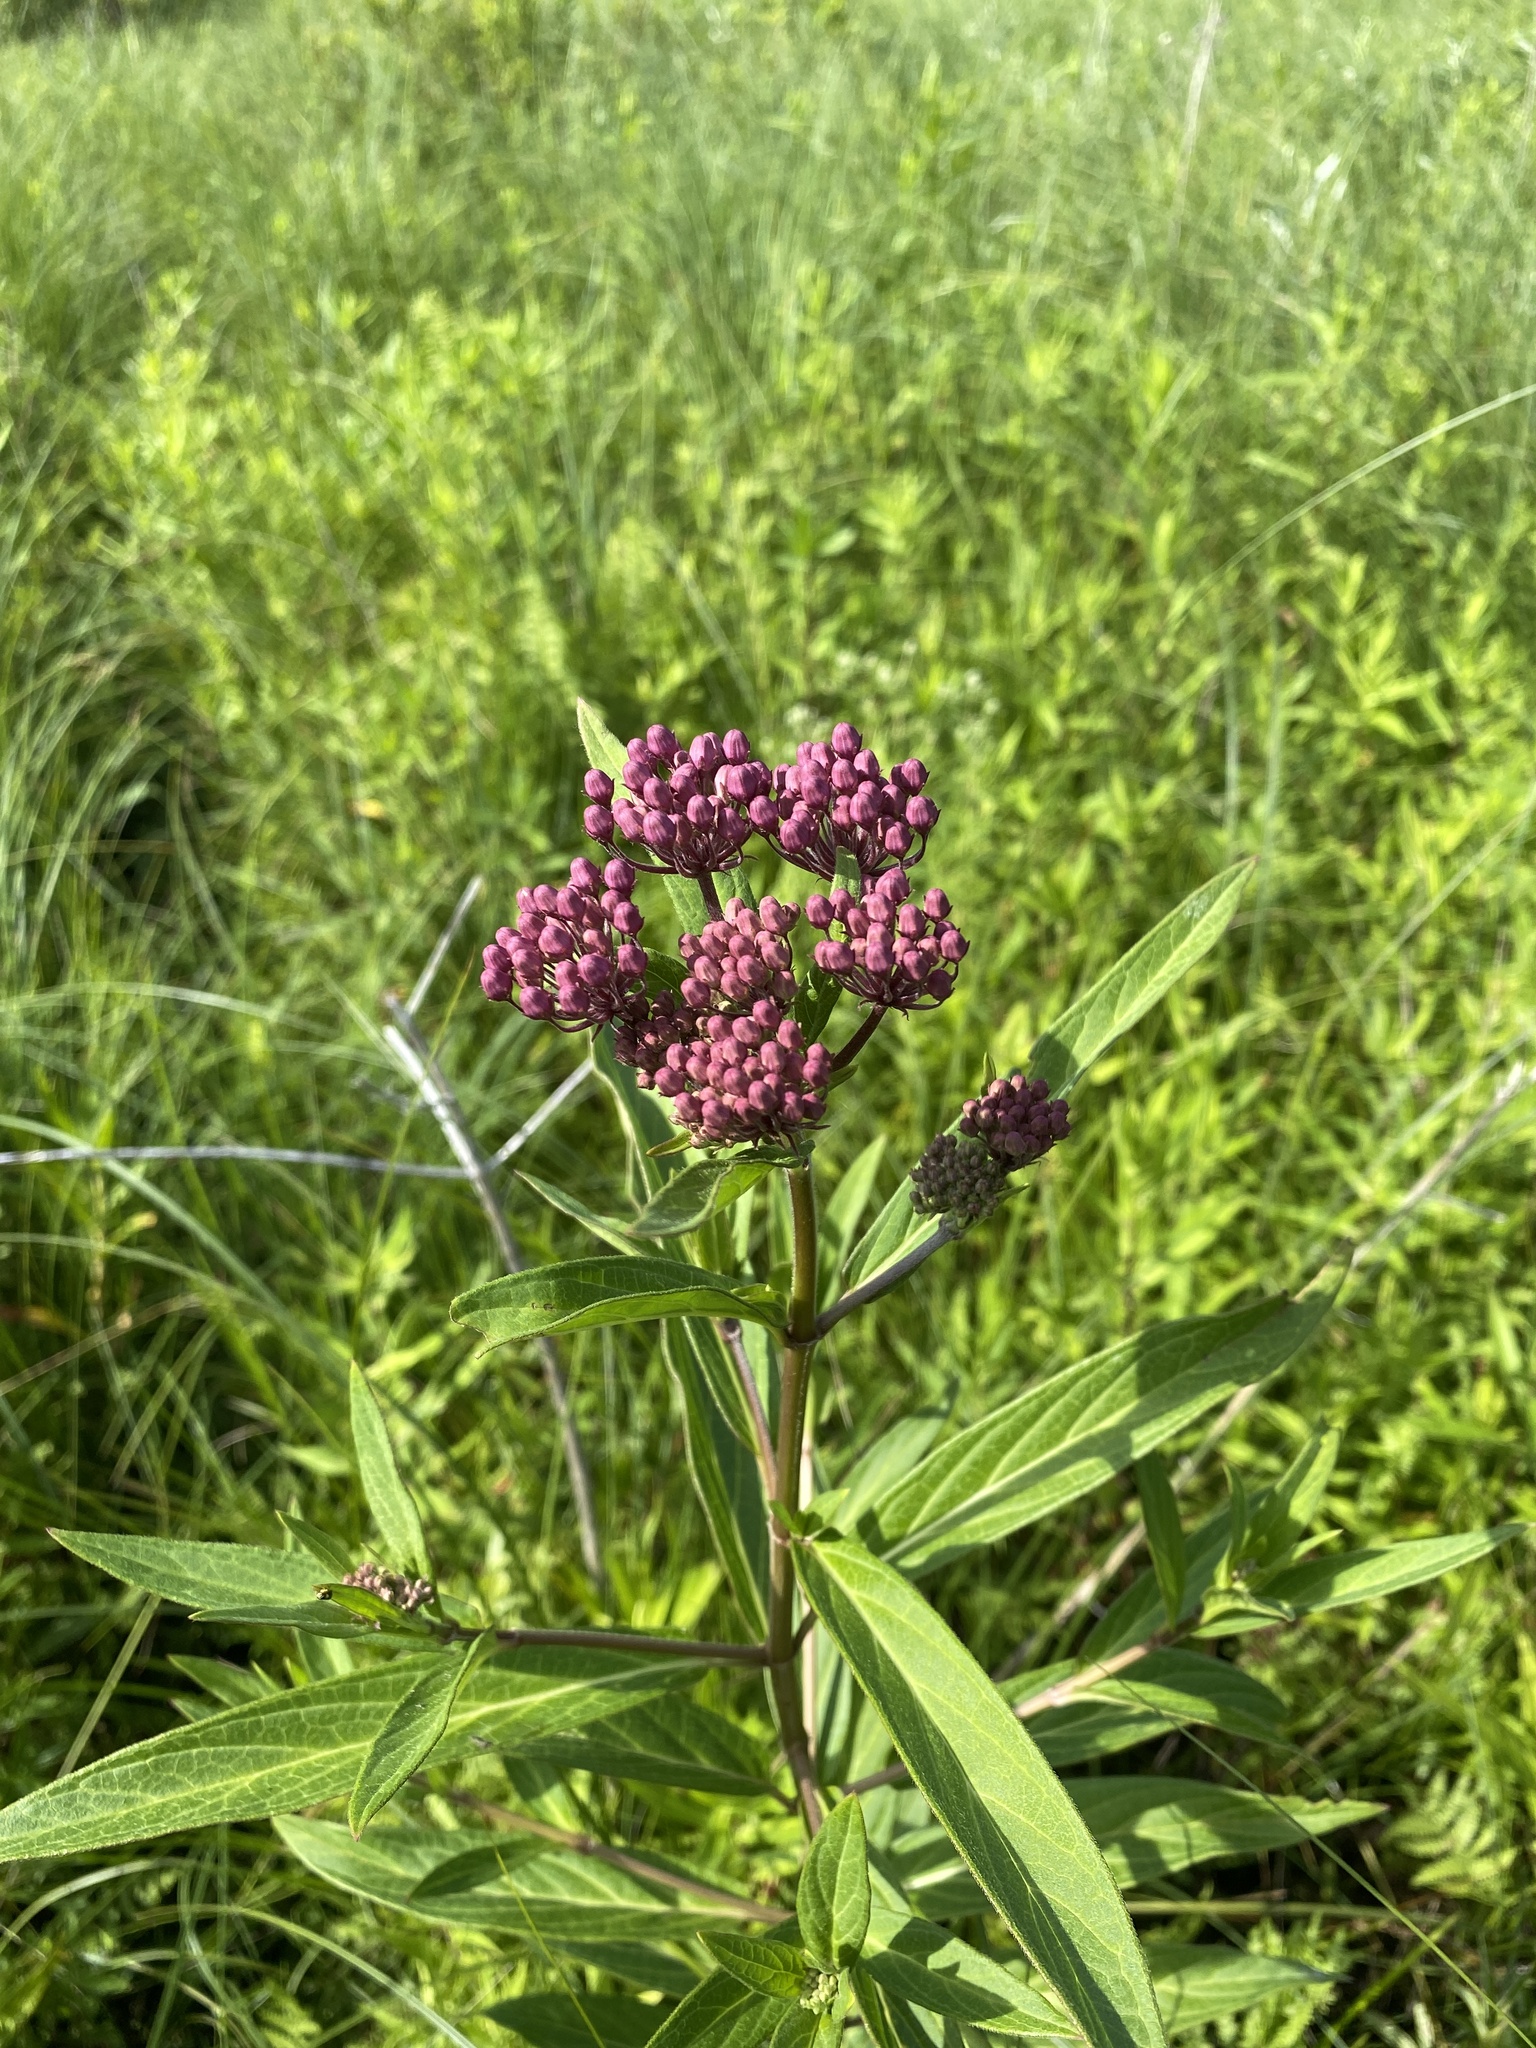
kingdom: Plantae
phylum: Tracheophyta
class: Magnoliopsida
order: Gentianales
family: Apocynaceae
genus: Asclepias
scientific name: Asclepias incarnata
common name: Swamp milkweed
